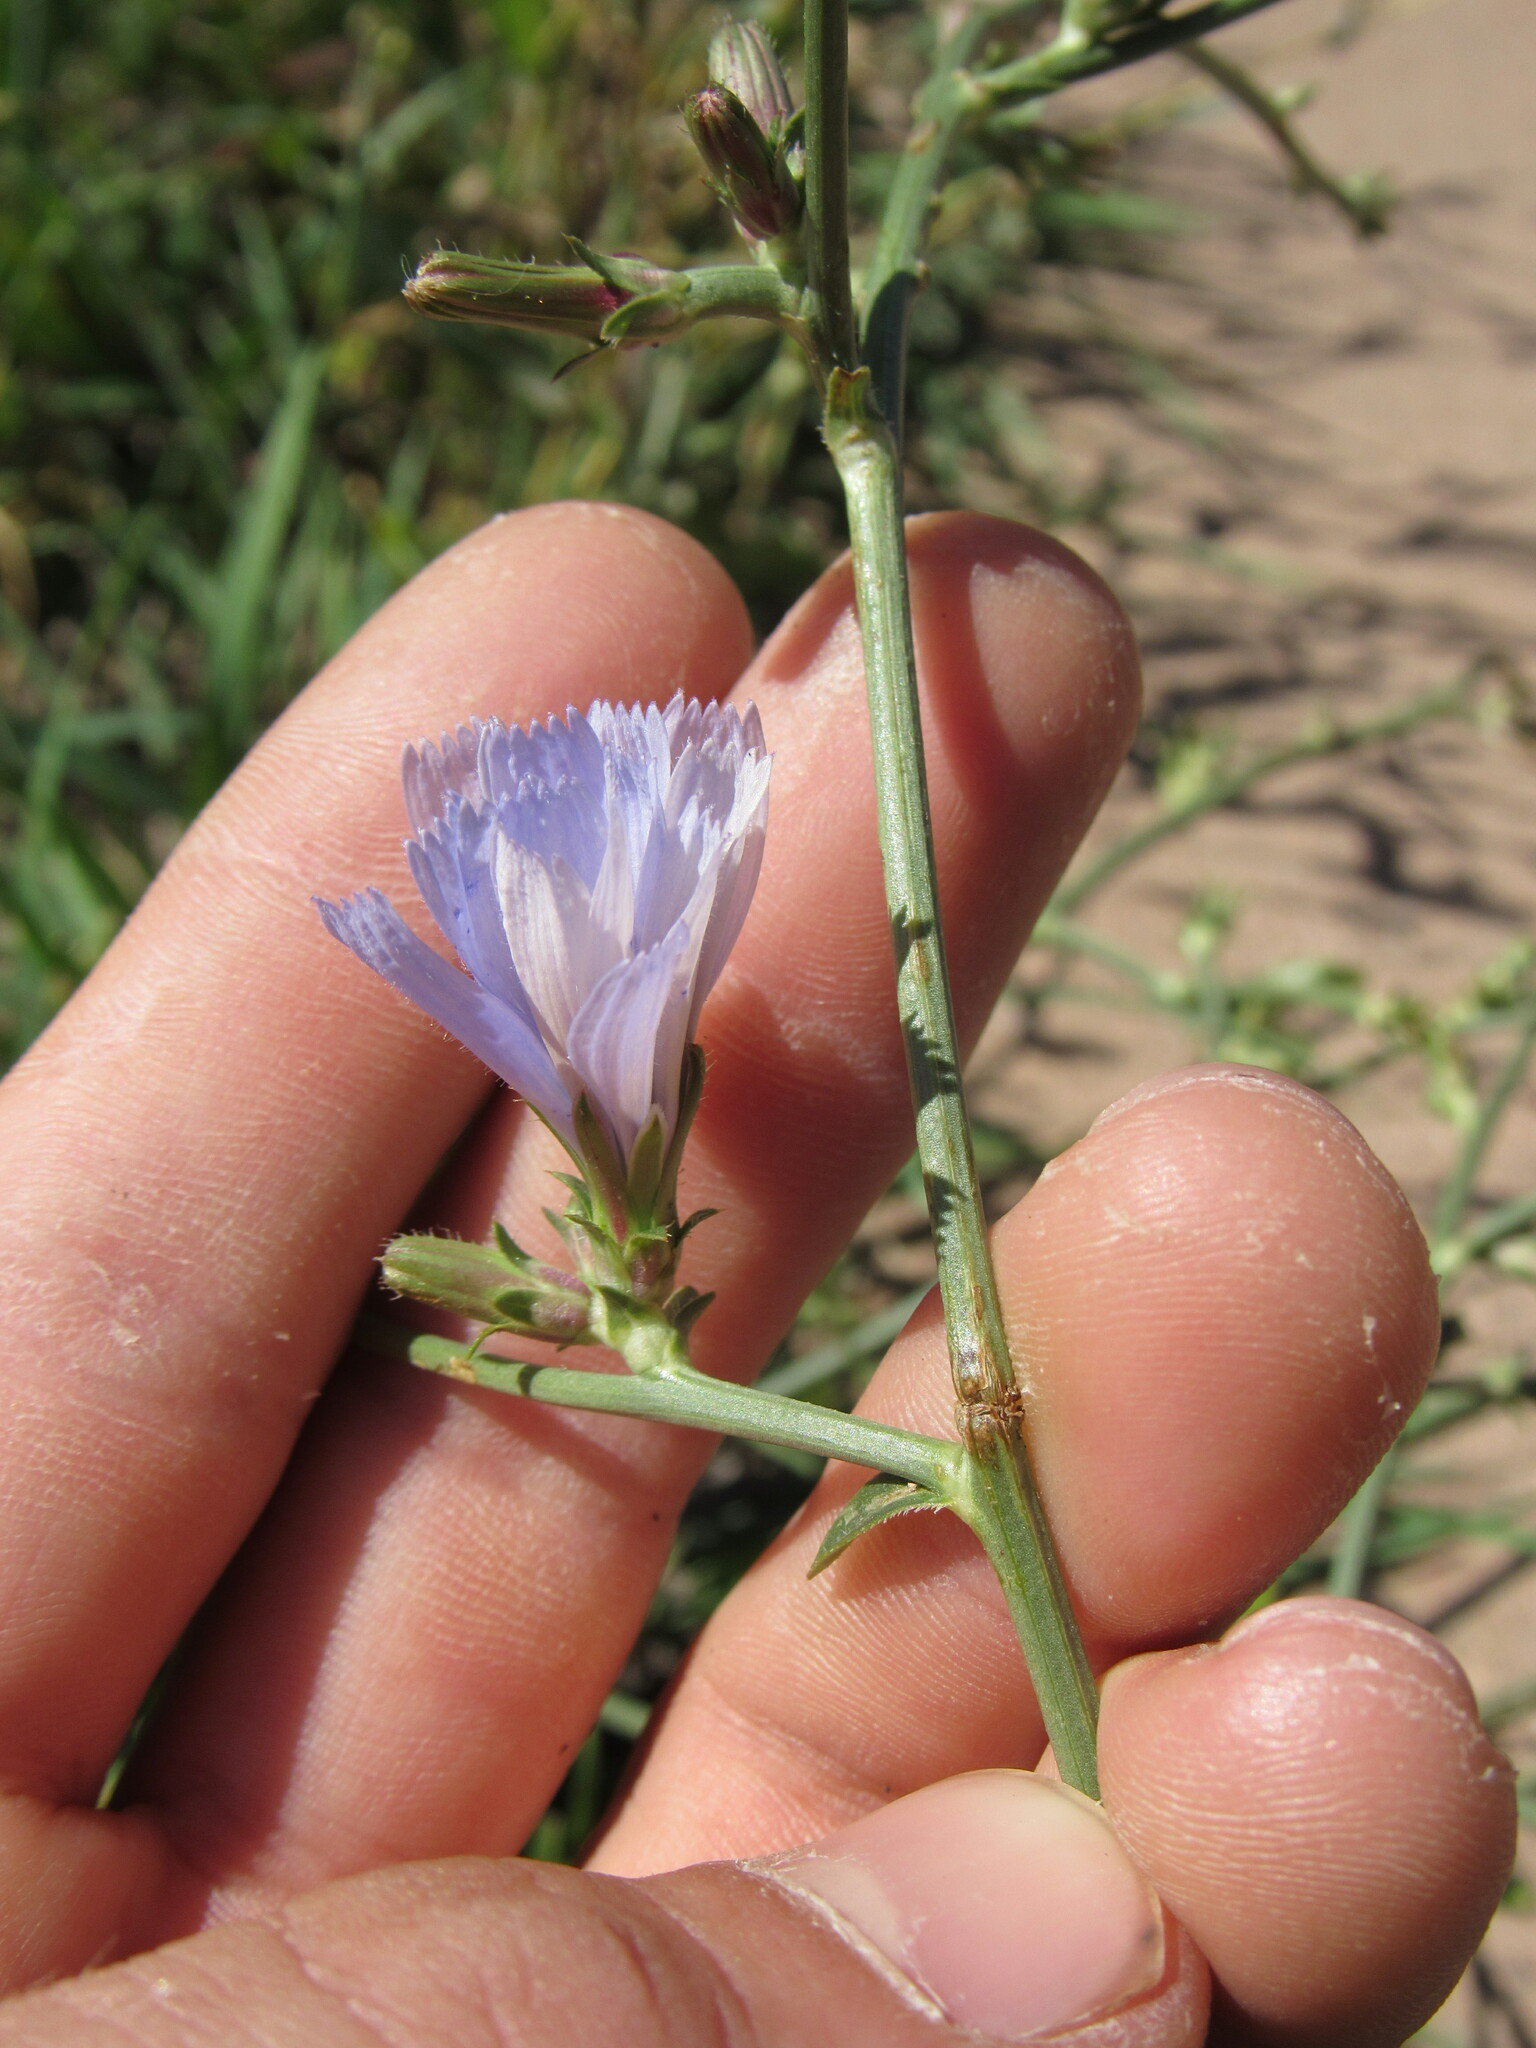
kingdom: Plantae
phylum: Tracheophyta
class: Magnoliopsida
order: Asterales
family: Asteraceae
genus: Cichorium
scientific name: Cichorium intybus
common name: Chicory
